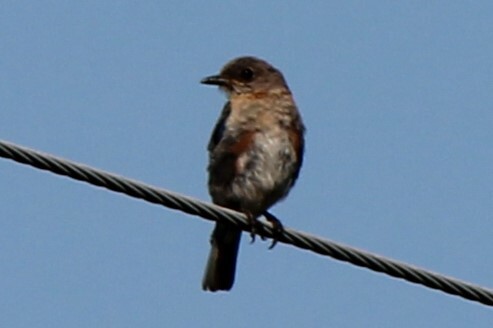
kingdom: Animalia
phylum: Chordata
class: Aves
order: Passeriformes
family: Turdidae
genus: Sialia
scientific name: Sialia sialis
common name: Eastern bluebird
